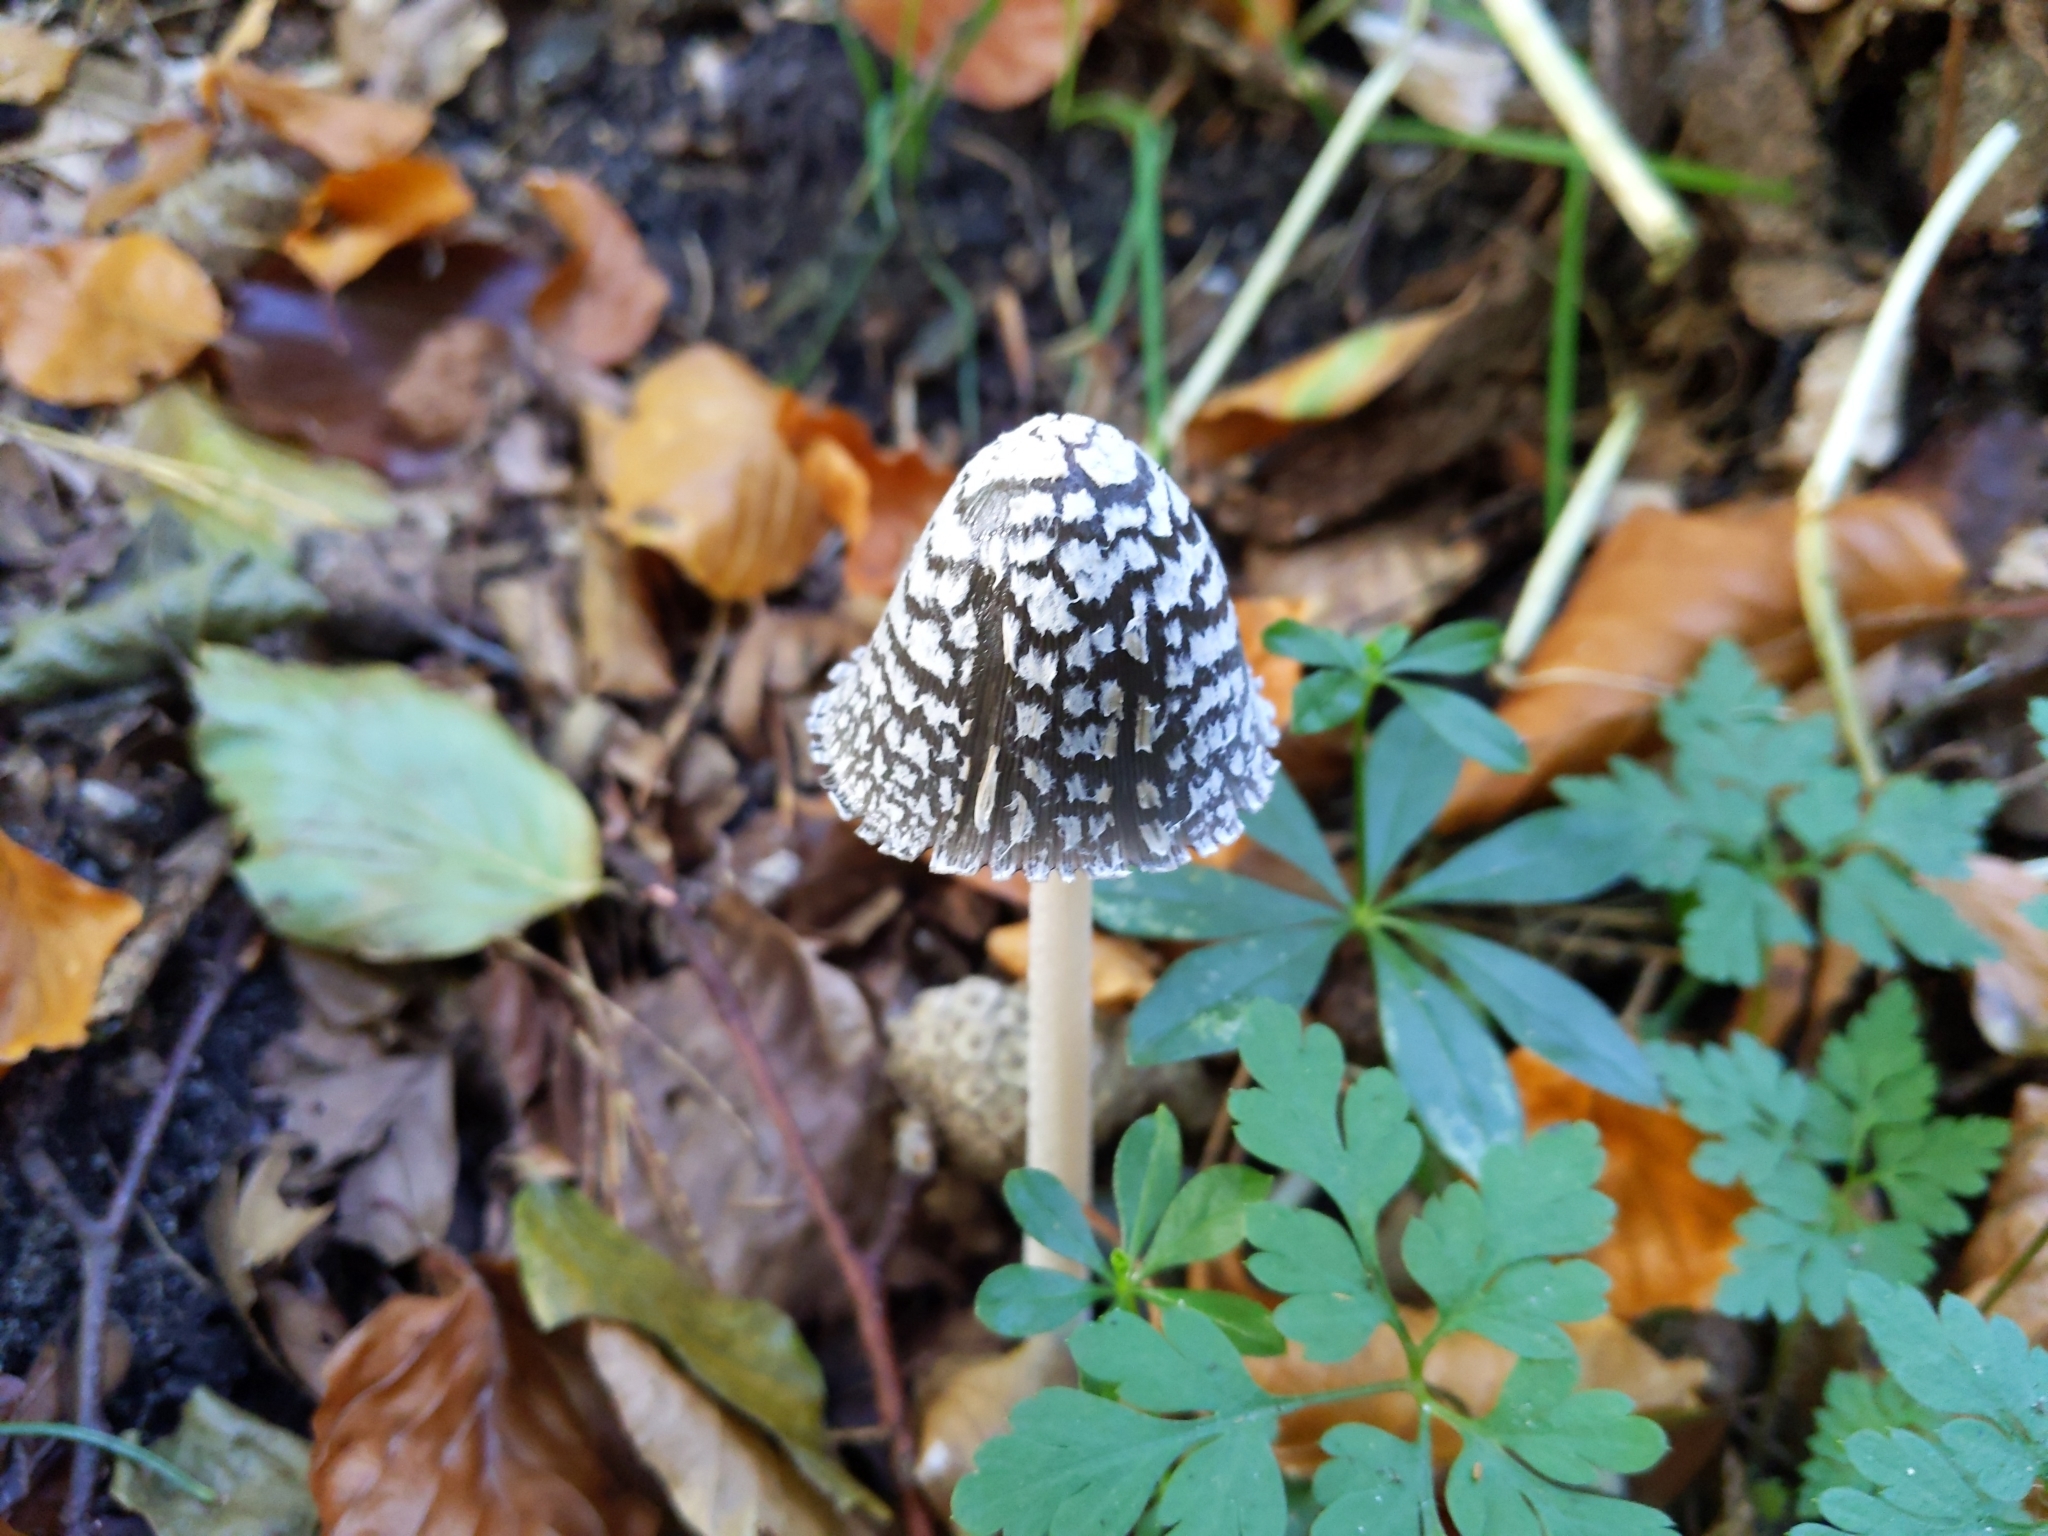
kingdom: Fungi
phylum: Basidiomycota
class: Agaricomycetes
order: Agaricales
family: Psathyrellaceae
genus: Coprinopsis
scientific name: Coprinopsis picacea
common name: Magpie inkcap
